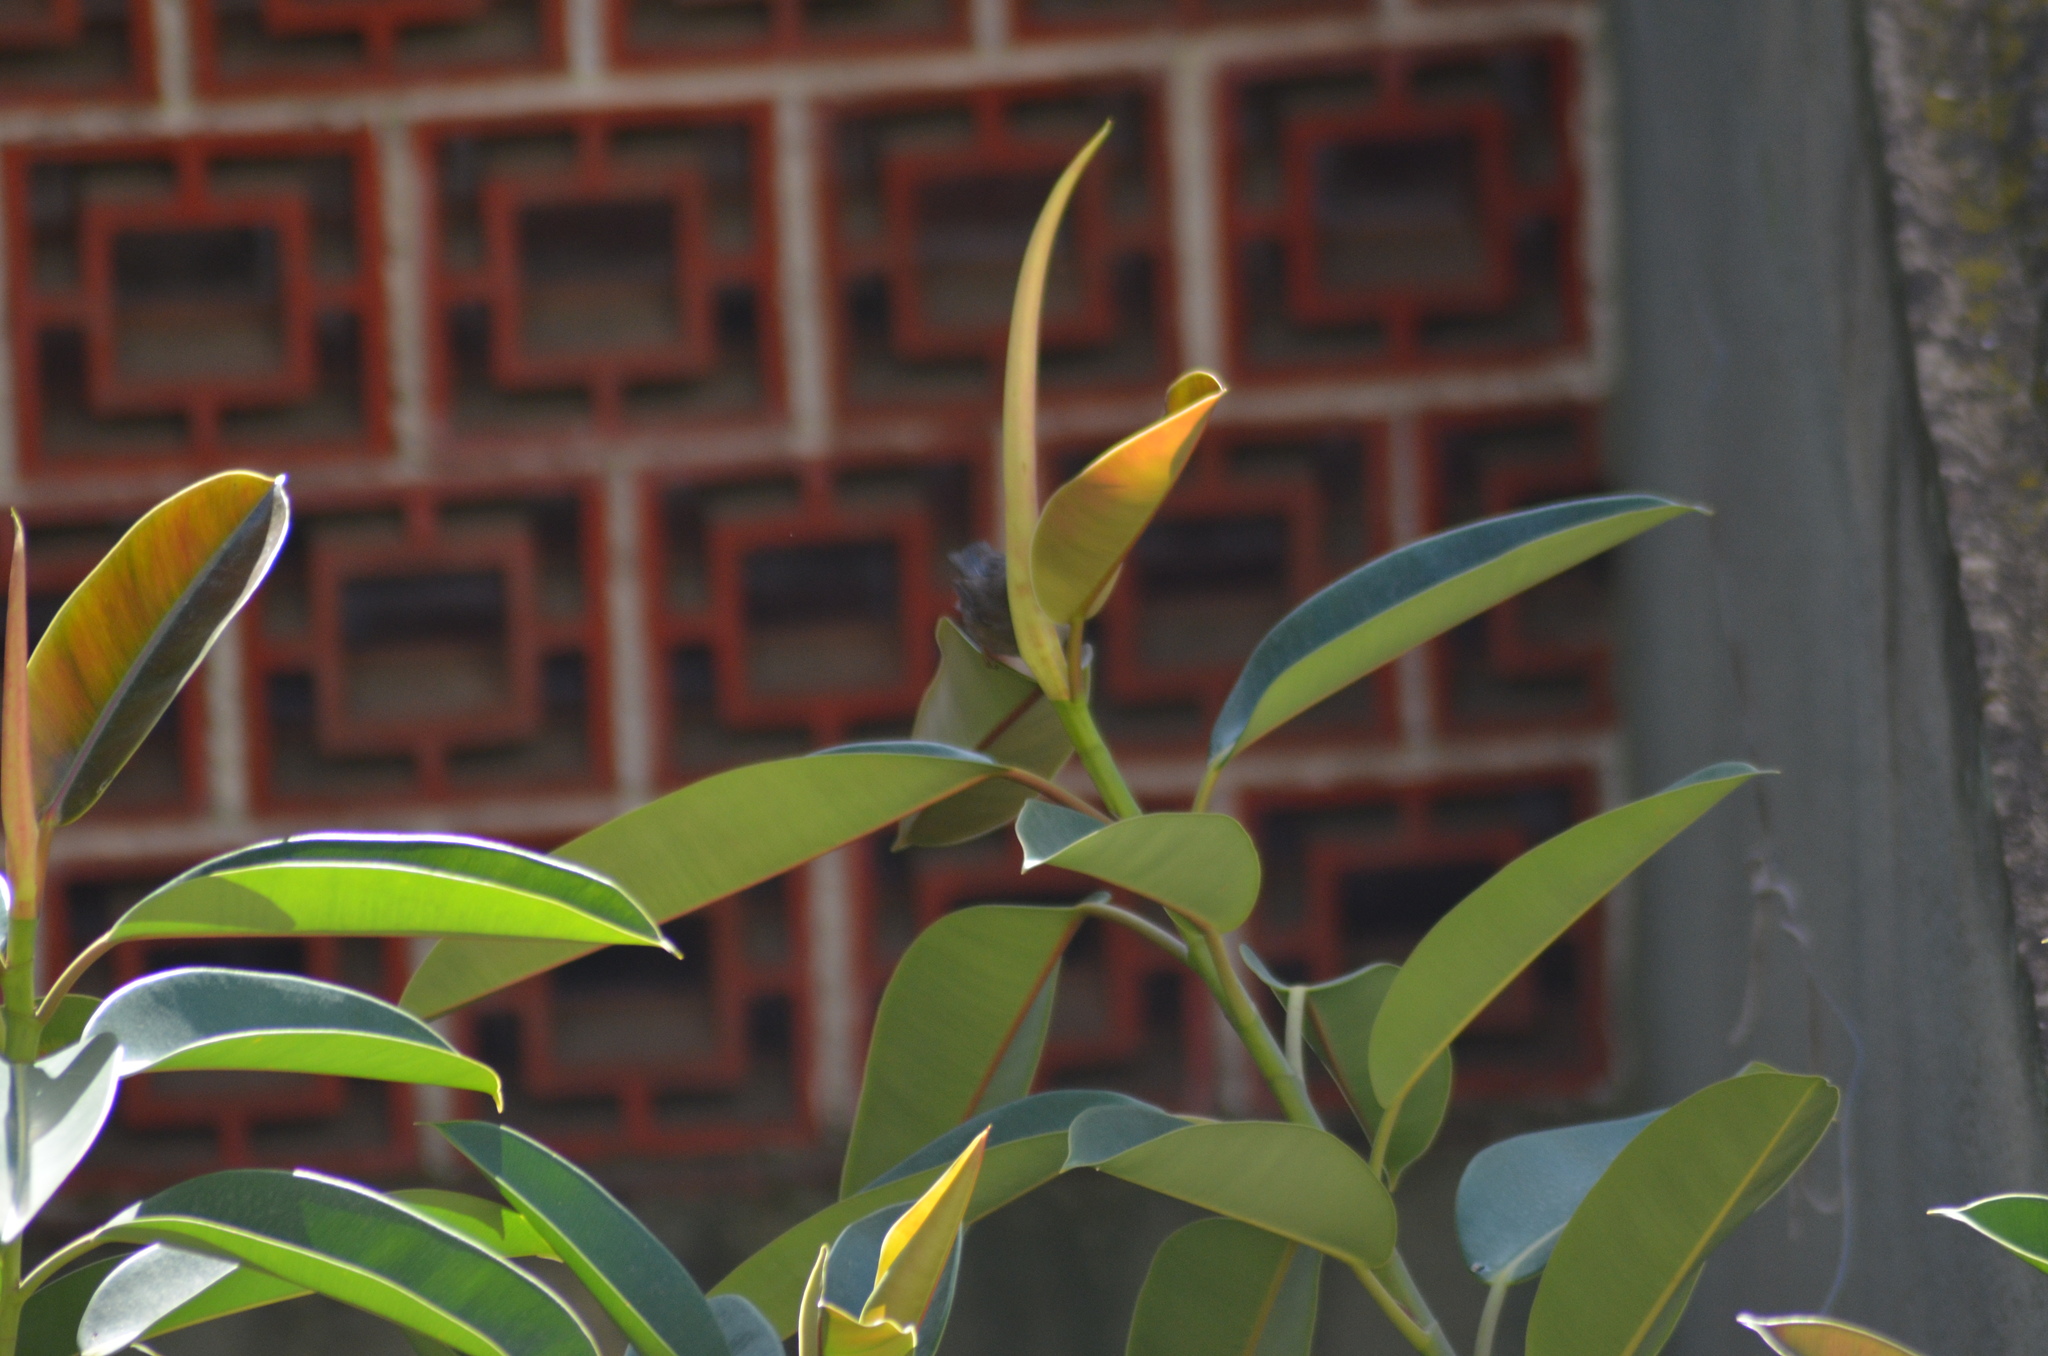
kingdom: Animalia
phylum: Chordata
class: Aves
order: Passeriformes
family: Sylviidae
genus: Curruca
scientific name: Curruca melanocephala
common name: Sardinian warbler
